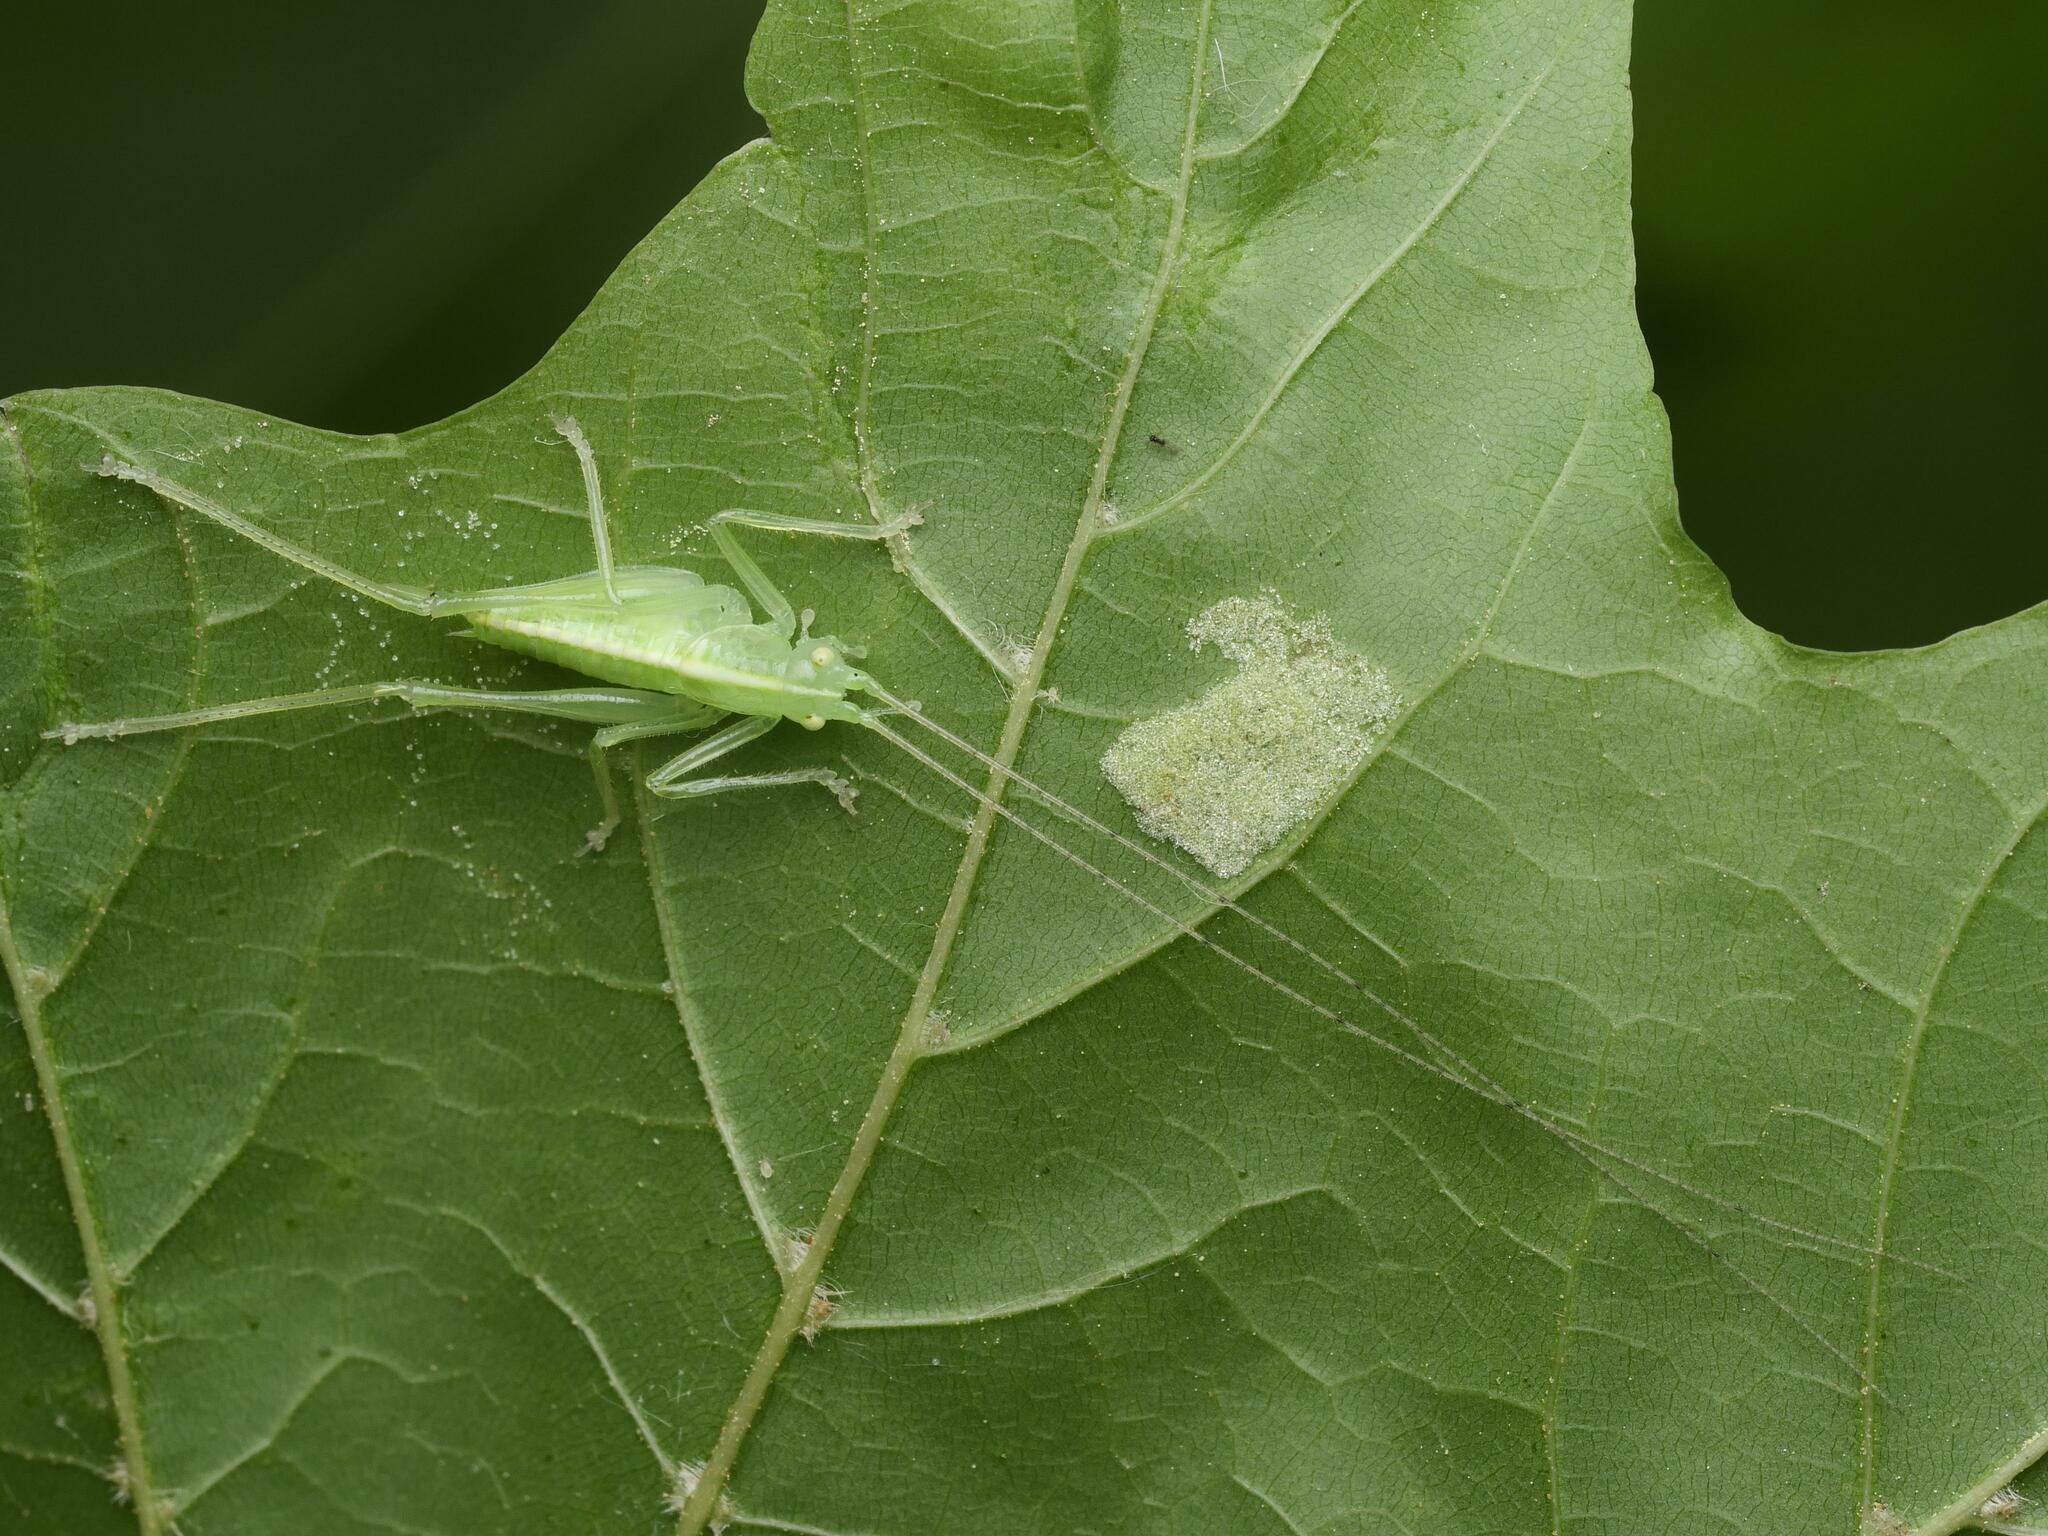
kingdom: Animalia
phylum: Arthropoda
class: Insecta
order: Orthoptera
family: Tettigoniidae
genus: Meconema
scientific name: Meconema meridionale
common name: Southern oak bush-cricket
